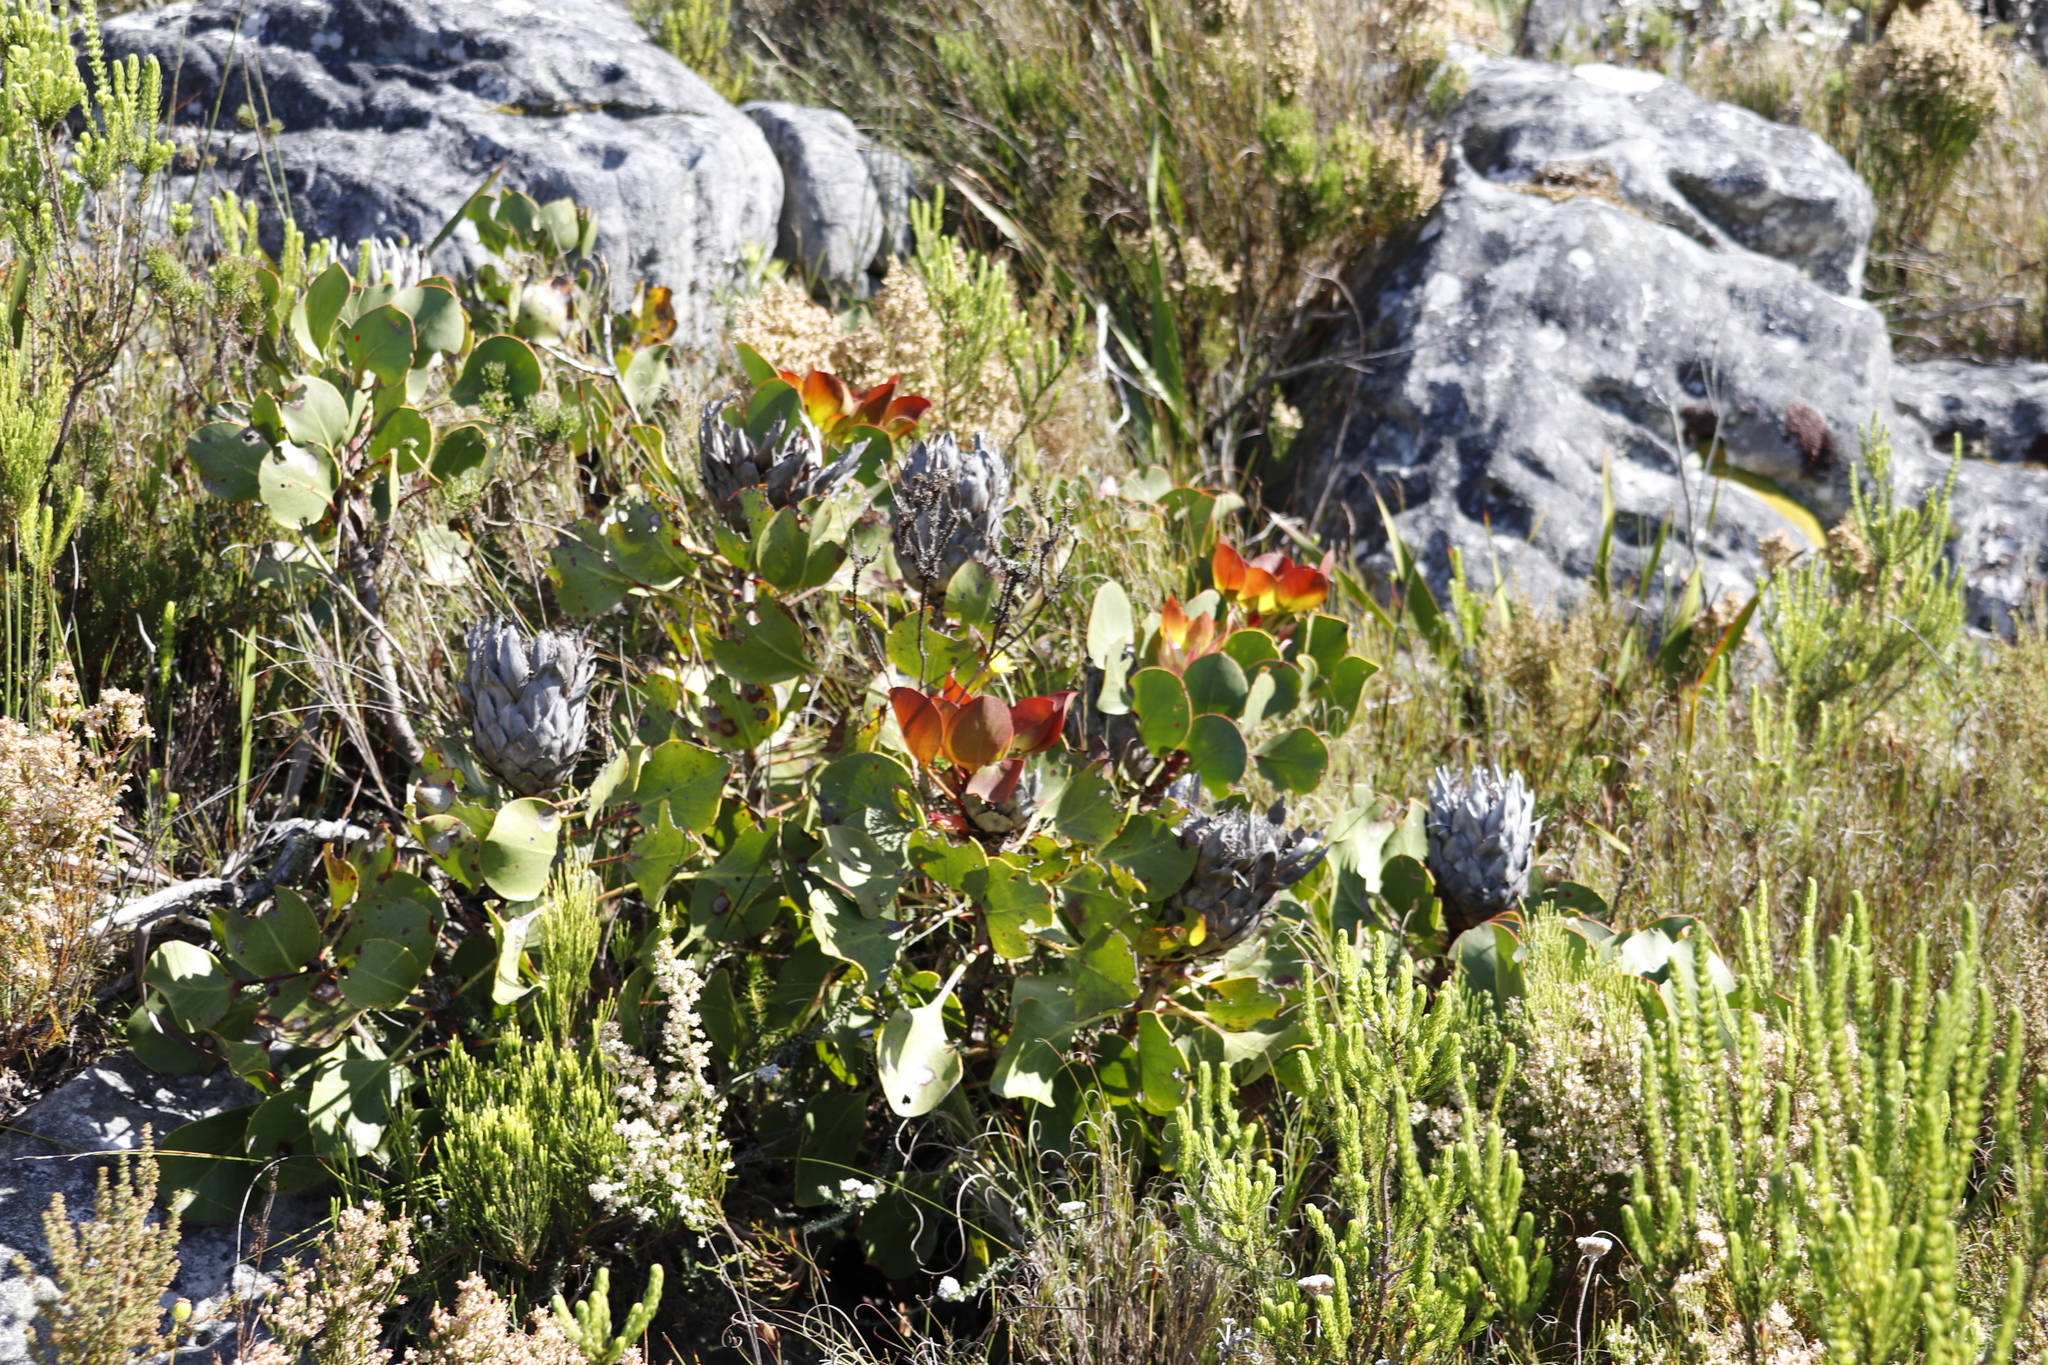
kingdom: Plantae
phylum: Tracheophyta
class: Magnoliopsida
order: Proteales
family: Proteaceae
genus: Protea
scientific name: Protea cynaroides
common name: King protea
